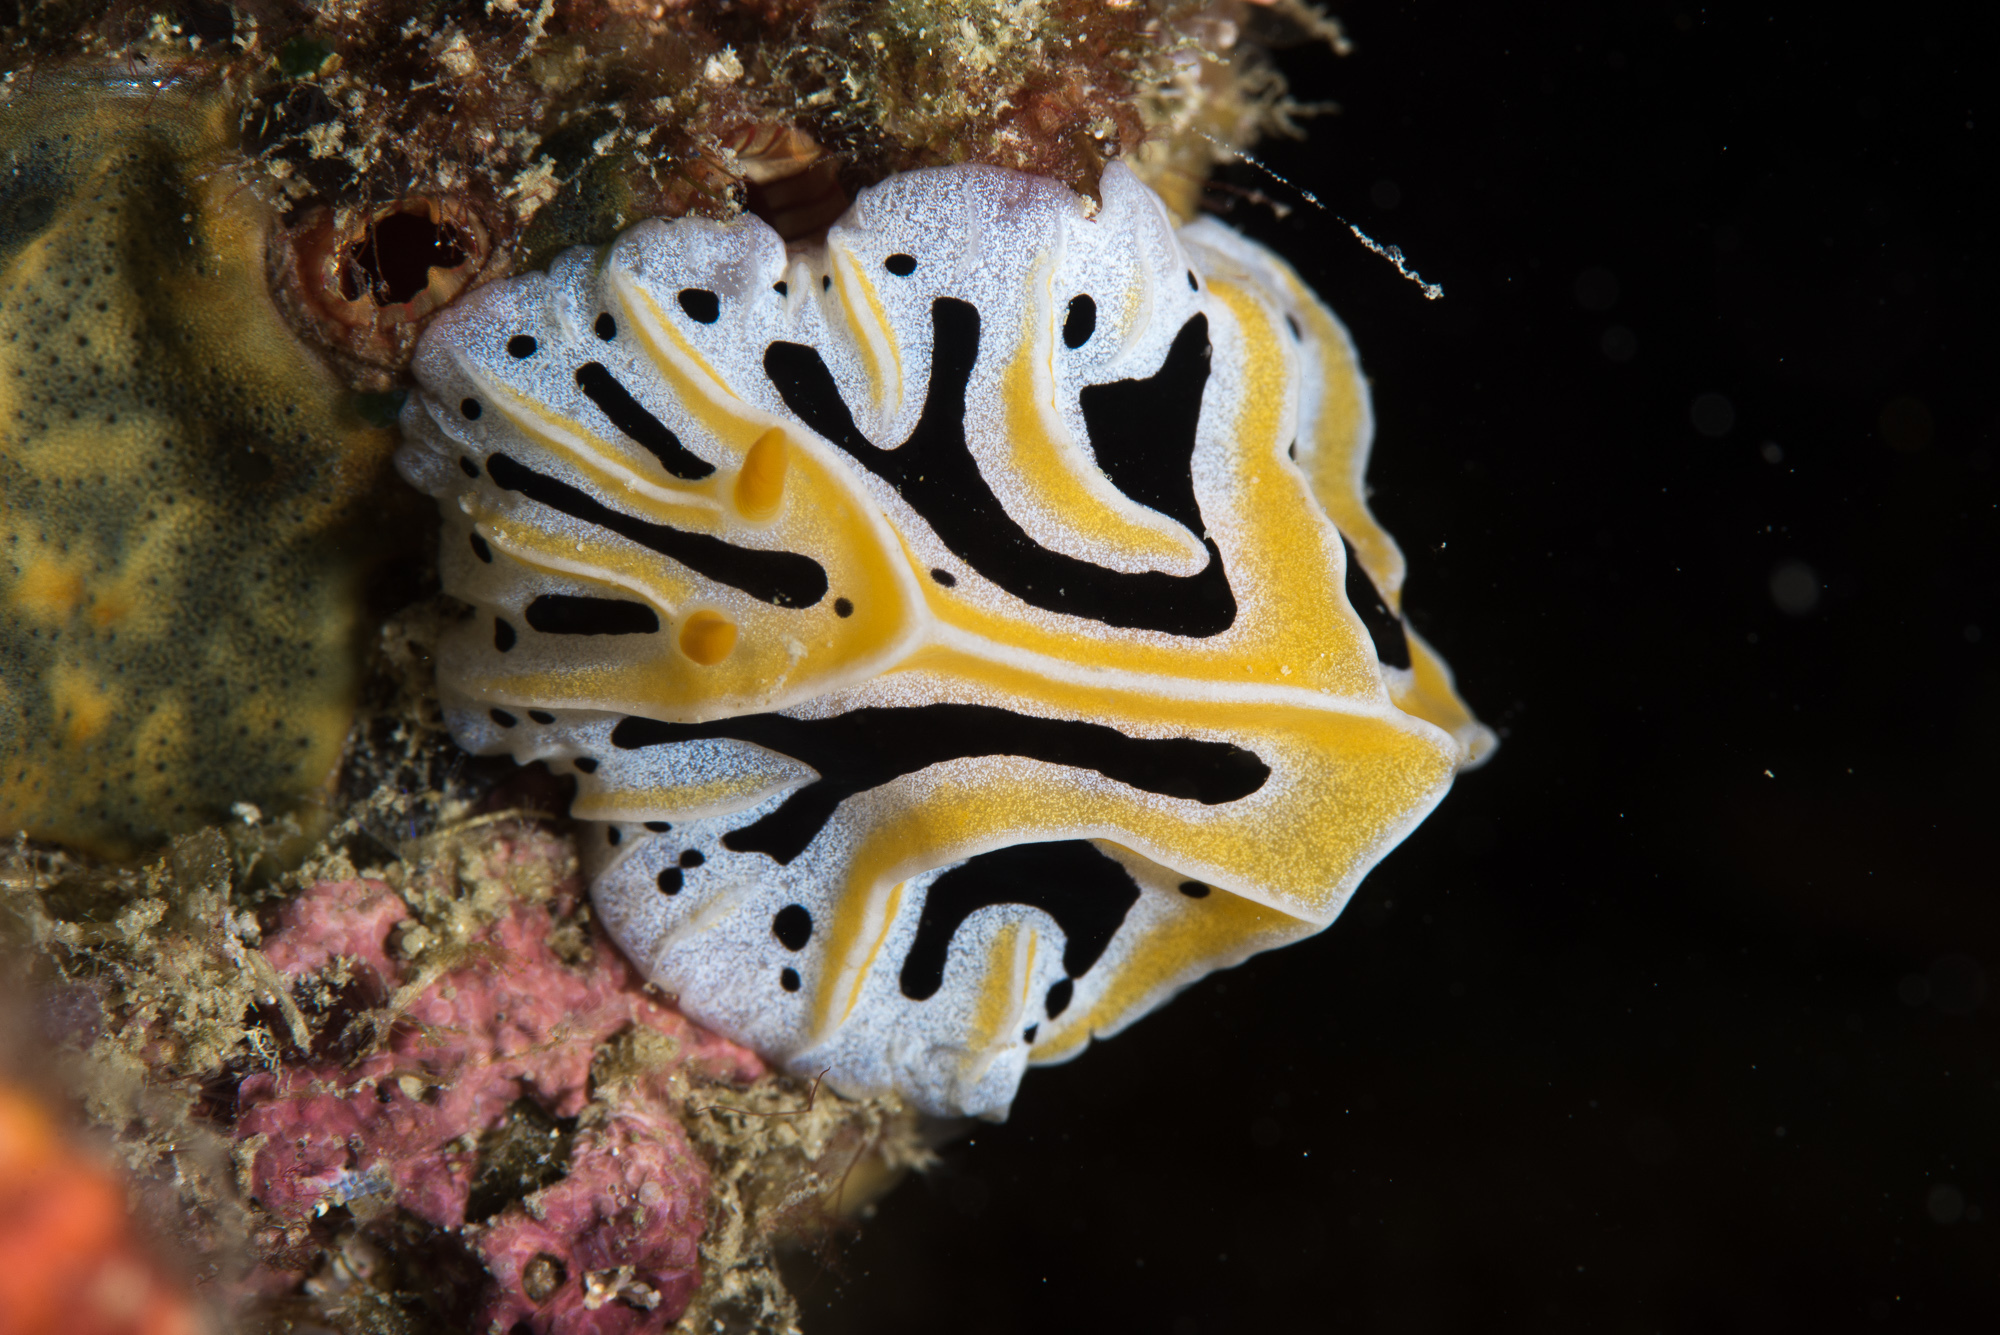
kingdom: Animalia
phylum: Mollusca
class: Gastropoda
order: Nudibranchia
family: Phyllidiidae
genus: Reticulidia
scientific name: Reticulidia fungia
